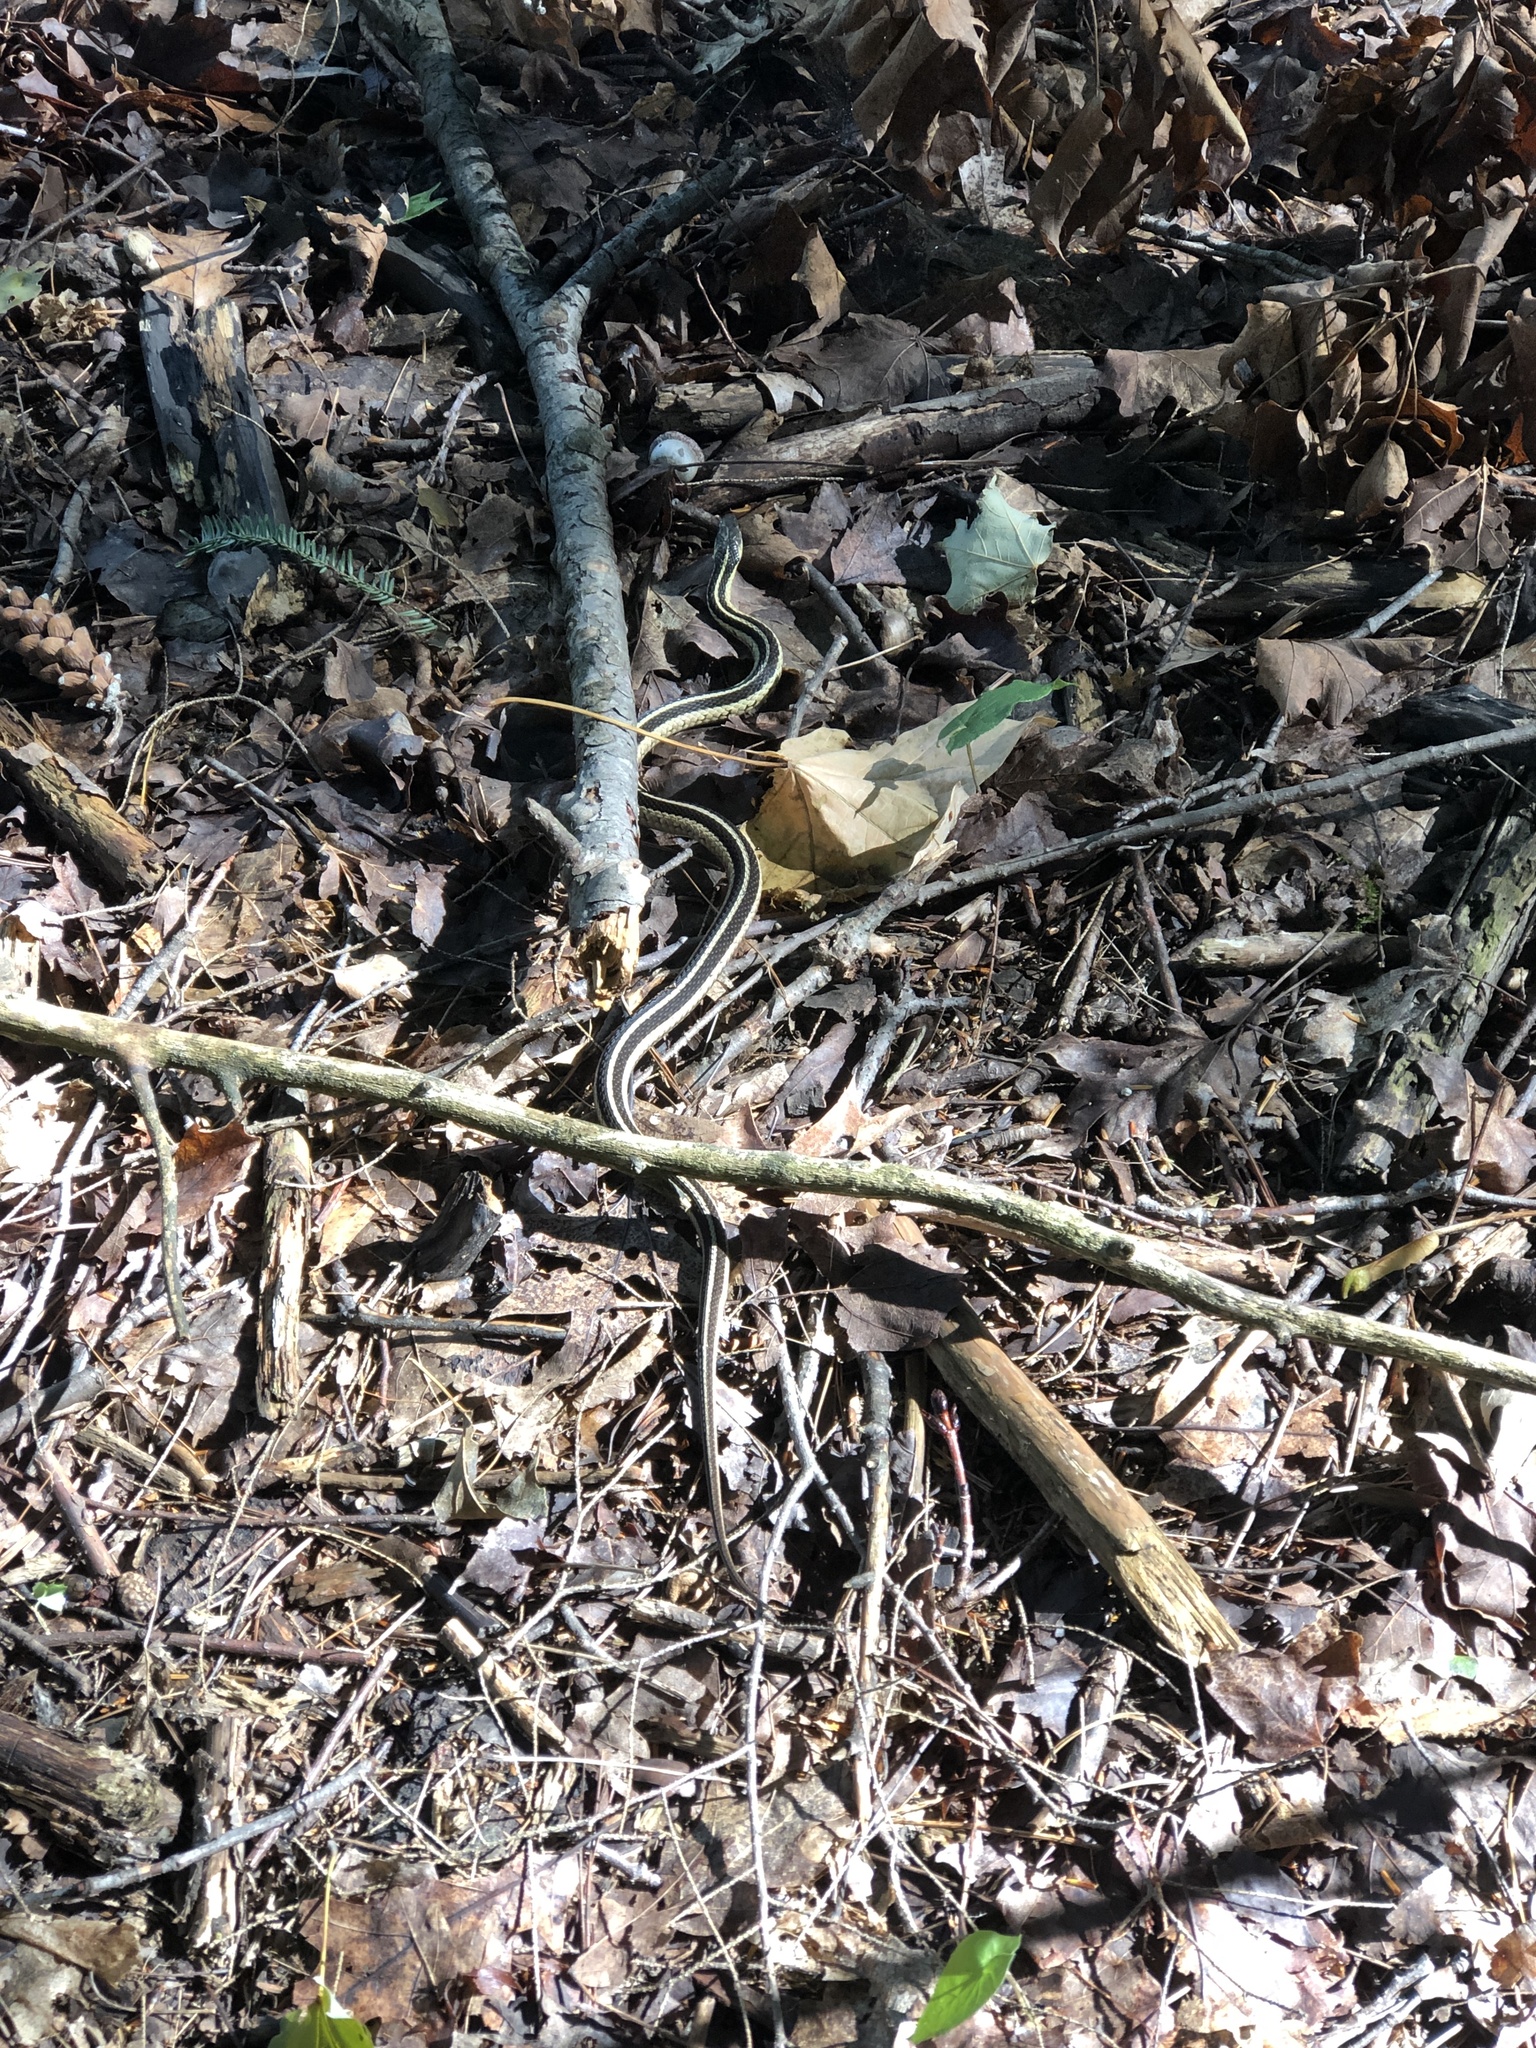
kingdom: Animalia
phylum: Chordata
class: Squamata
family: Colubridae
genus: Thamnophis
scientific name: Thamnophis sirtalis
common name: Common garter snake
